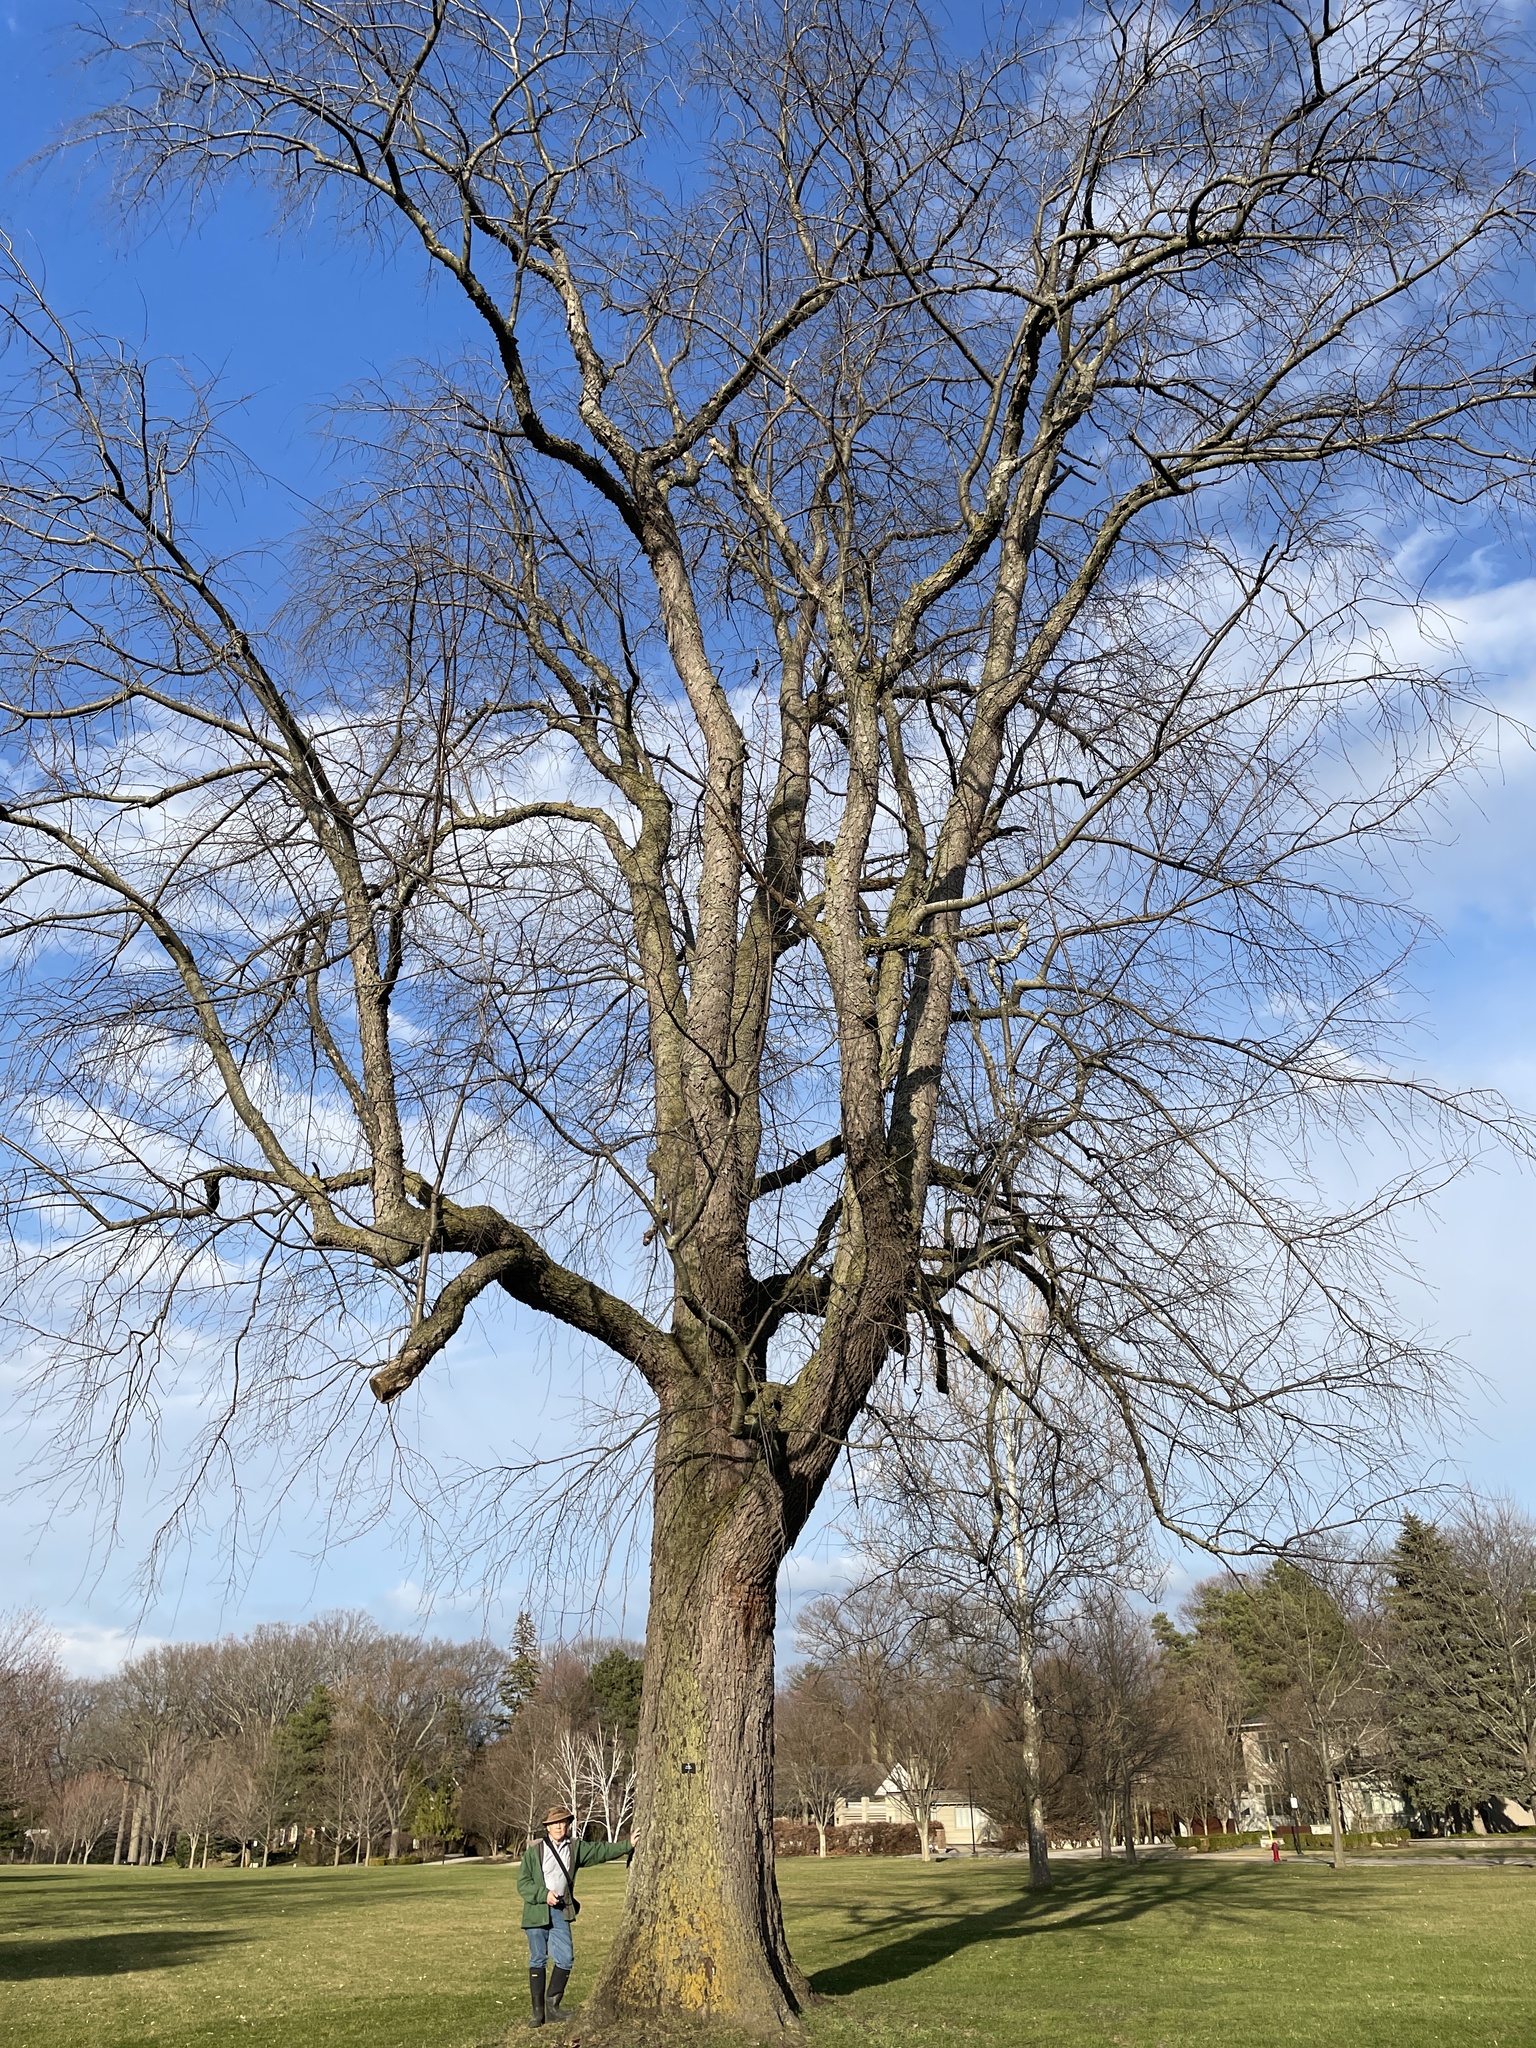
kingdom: Plantae
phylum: Tracheophyta
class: Magnoliopsida
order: Rosales
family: Rosaceae
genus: Prunus
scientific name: Prunus serotina
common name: Black cherry
